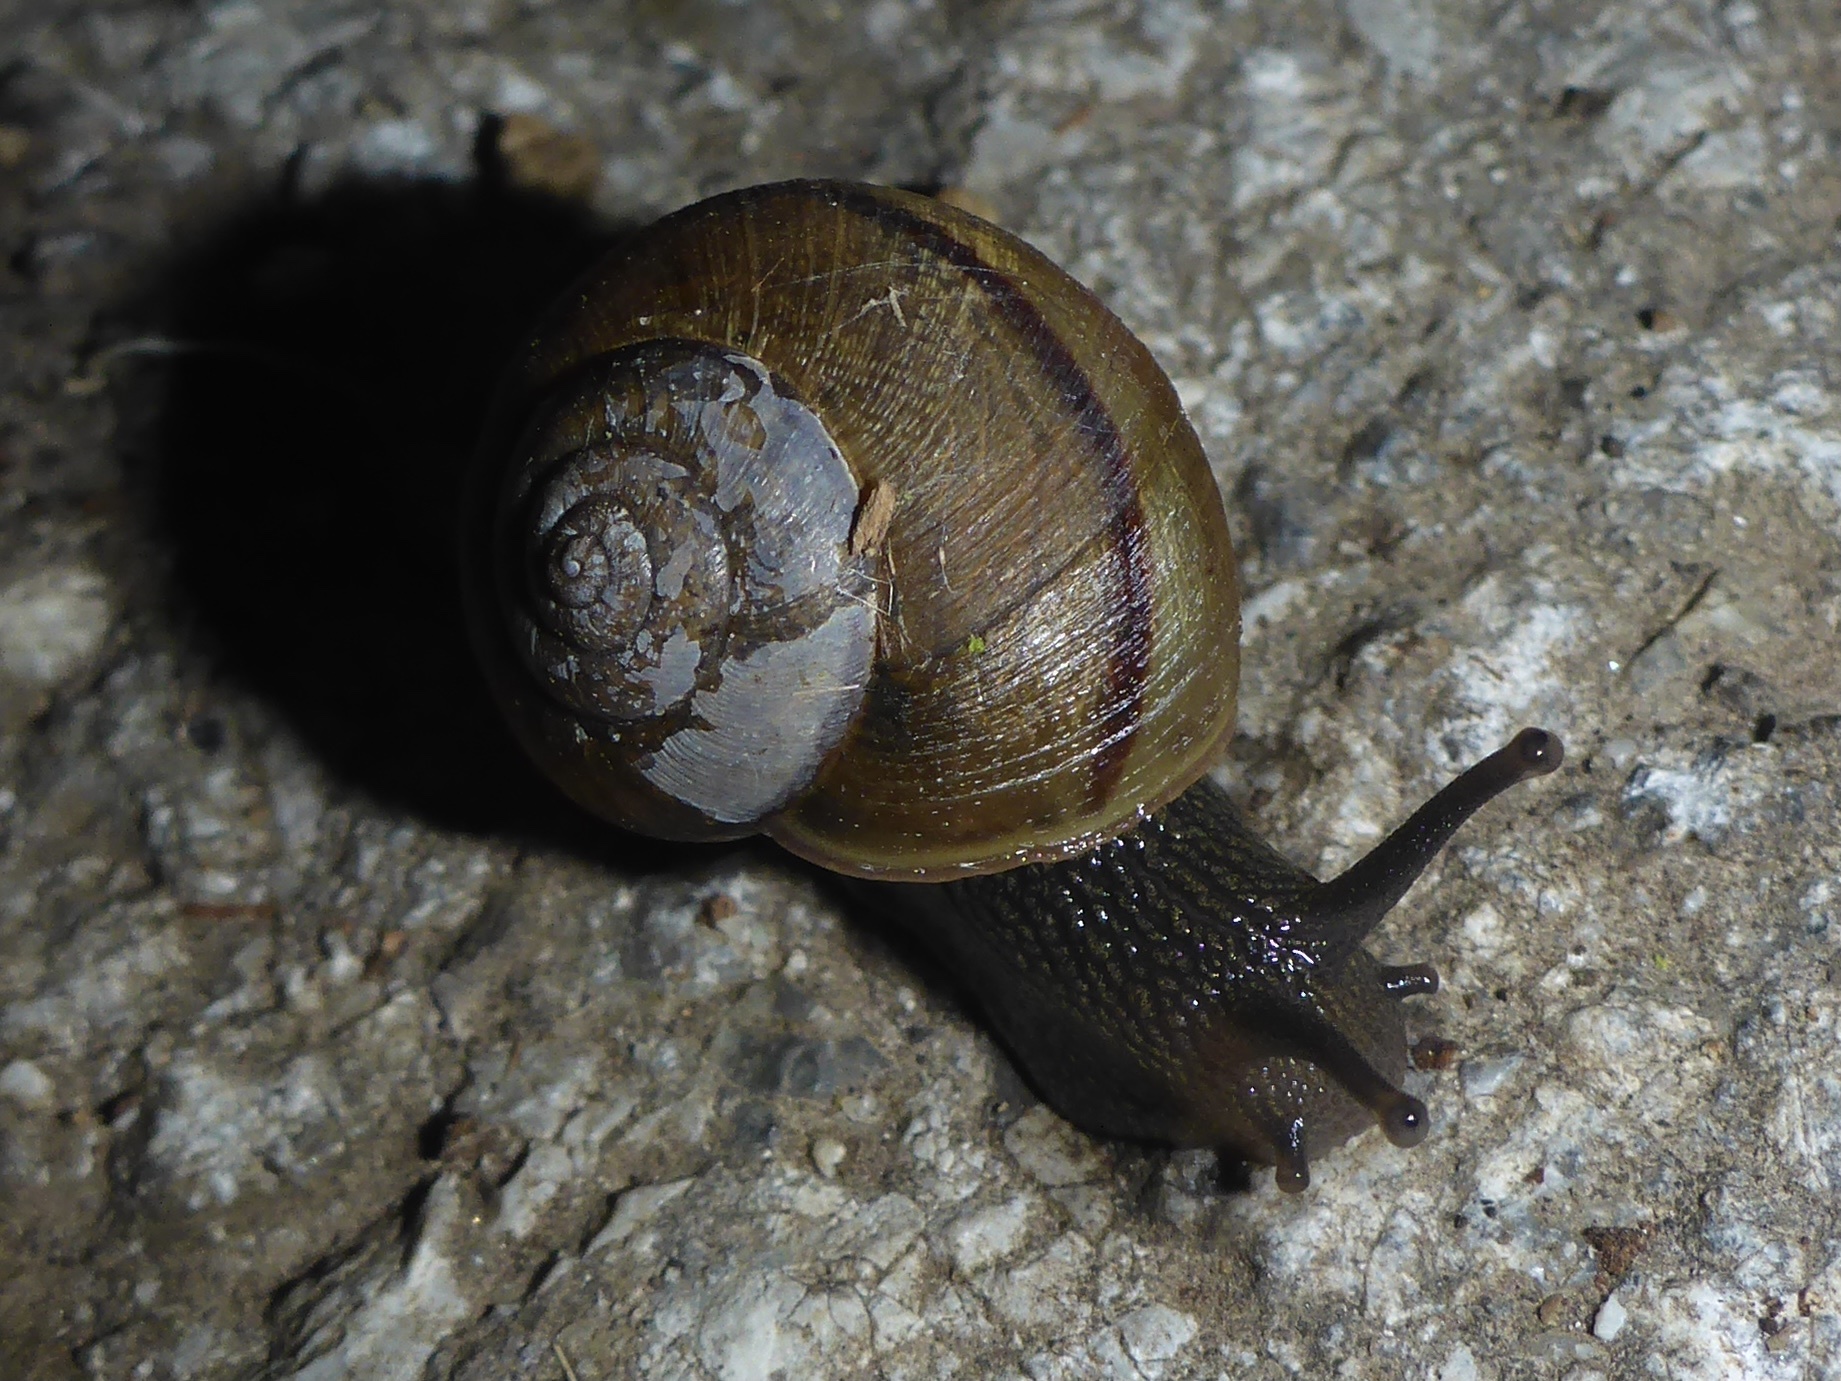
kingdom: Animalia
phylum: Mollusca
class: Gastropoda
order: Stylommatophora
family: Xanthonychidae
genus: Helminthoglypta
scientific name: Helminthoglypta nickliniana
